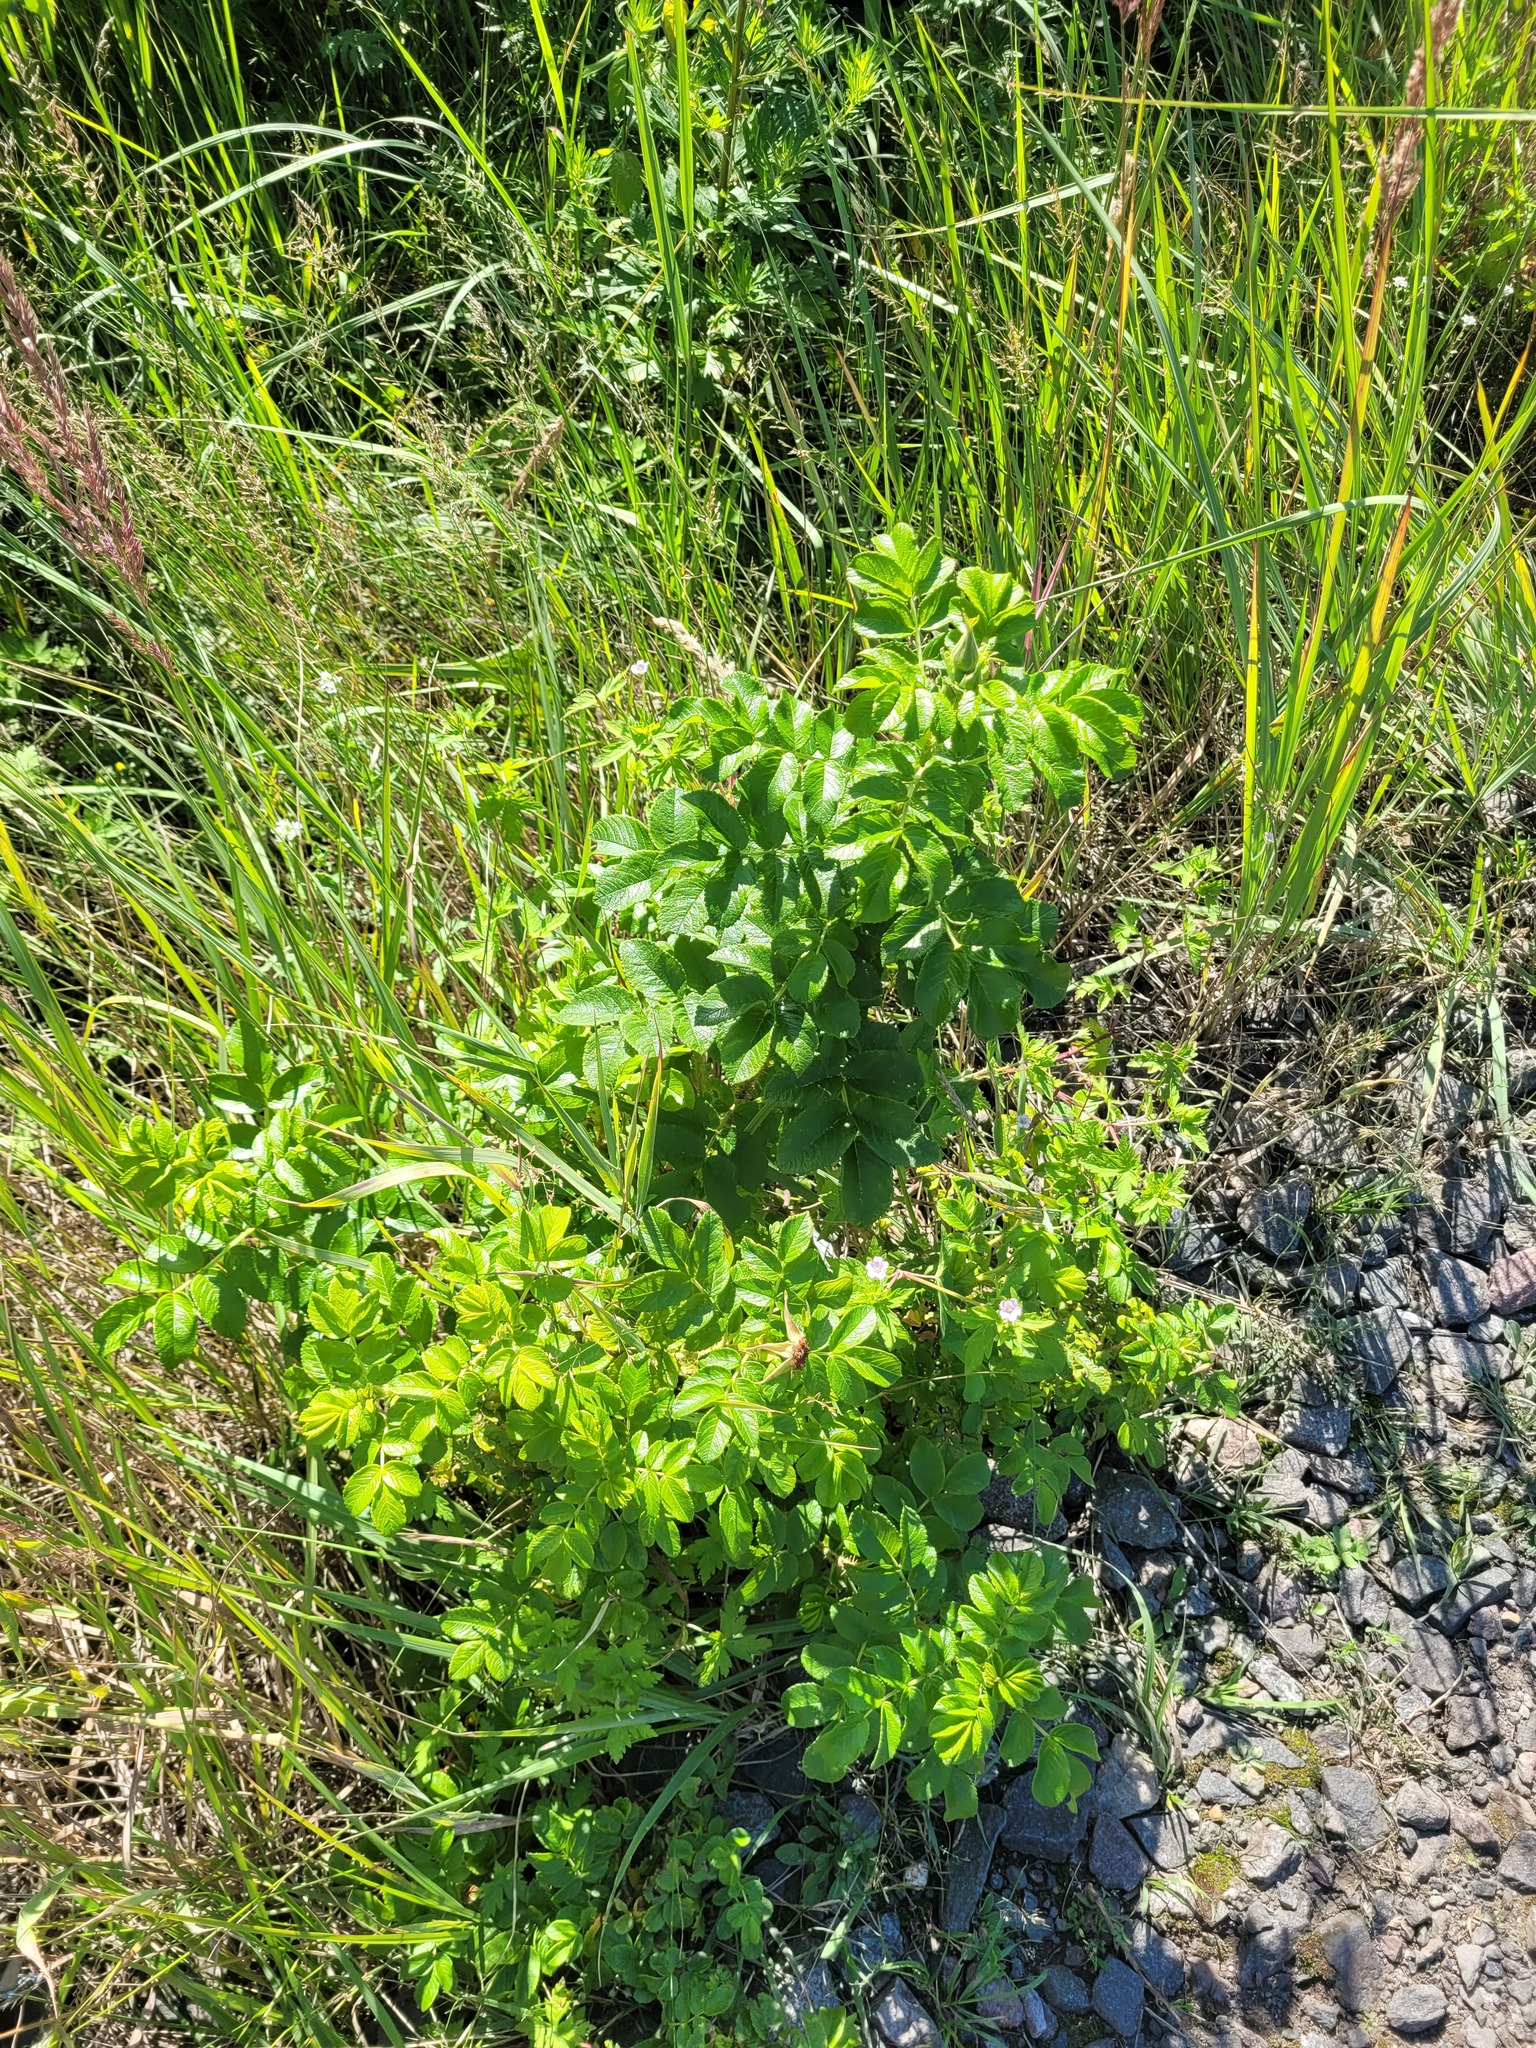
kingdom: Plantae
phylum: Tracheophyta
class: Magnoliopsida
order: Rosales
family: Rosaceae
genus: Rosa
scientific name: Rosa rugosa
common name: Japanese rose
